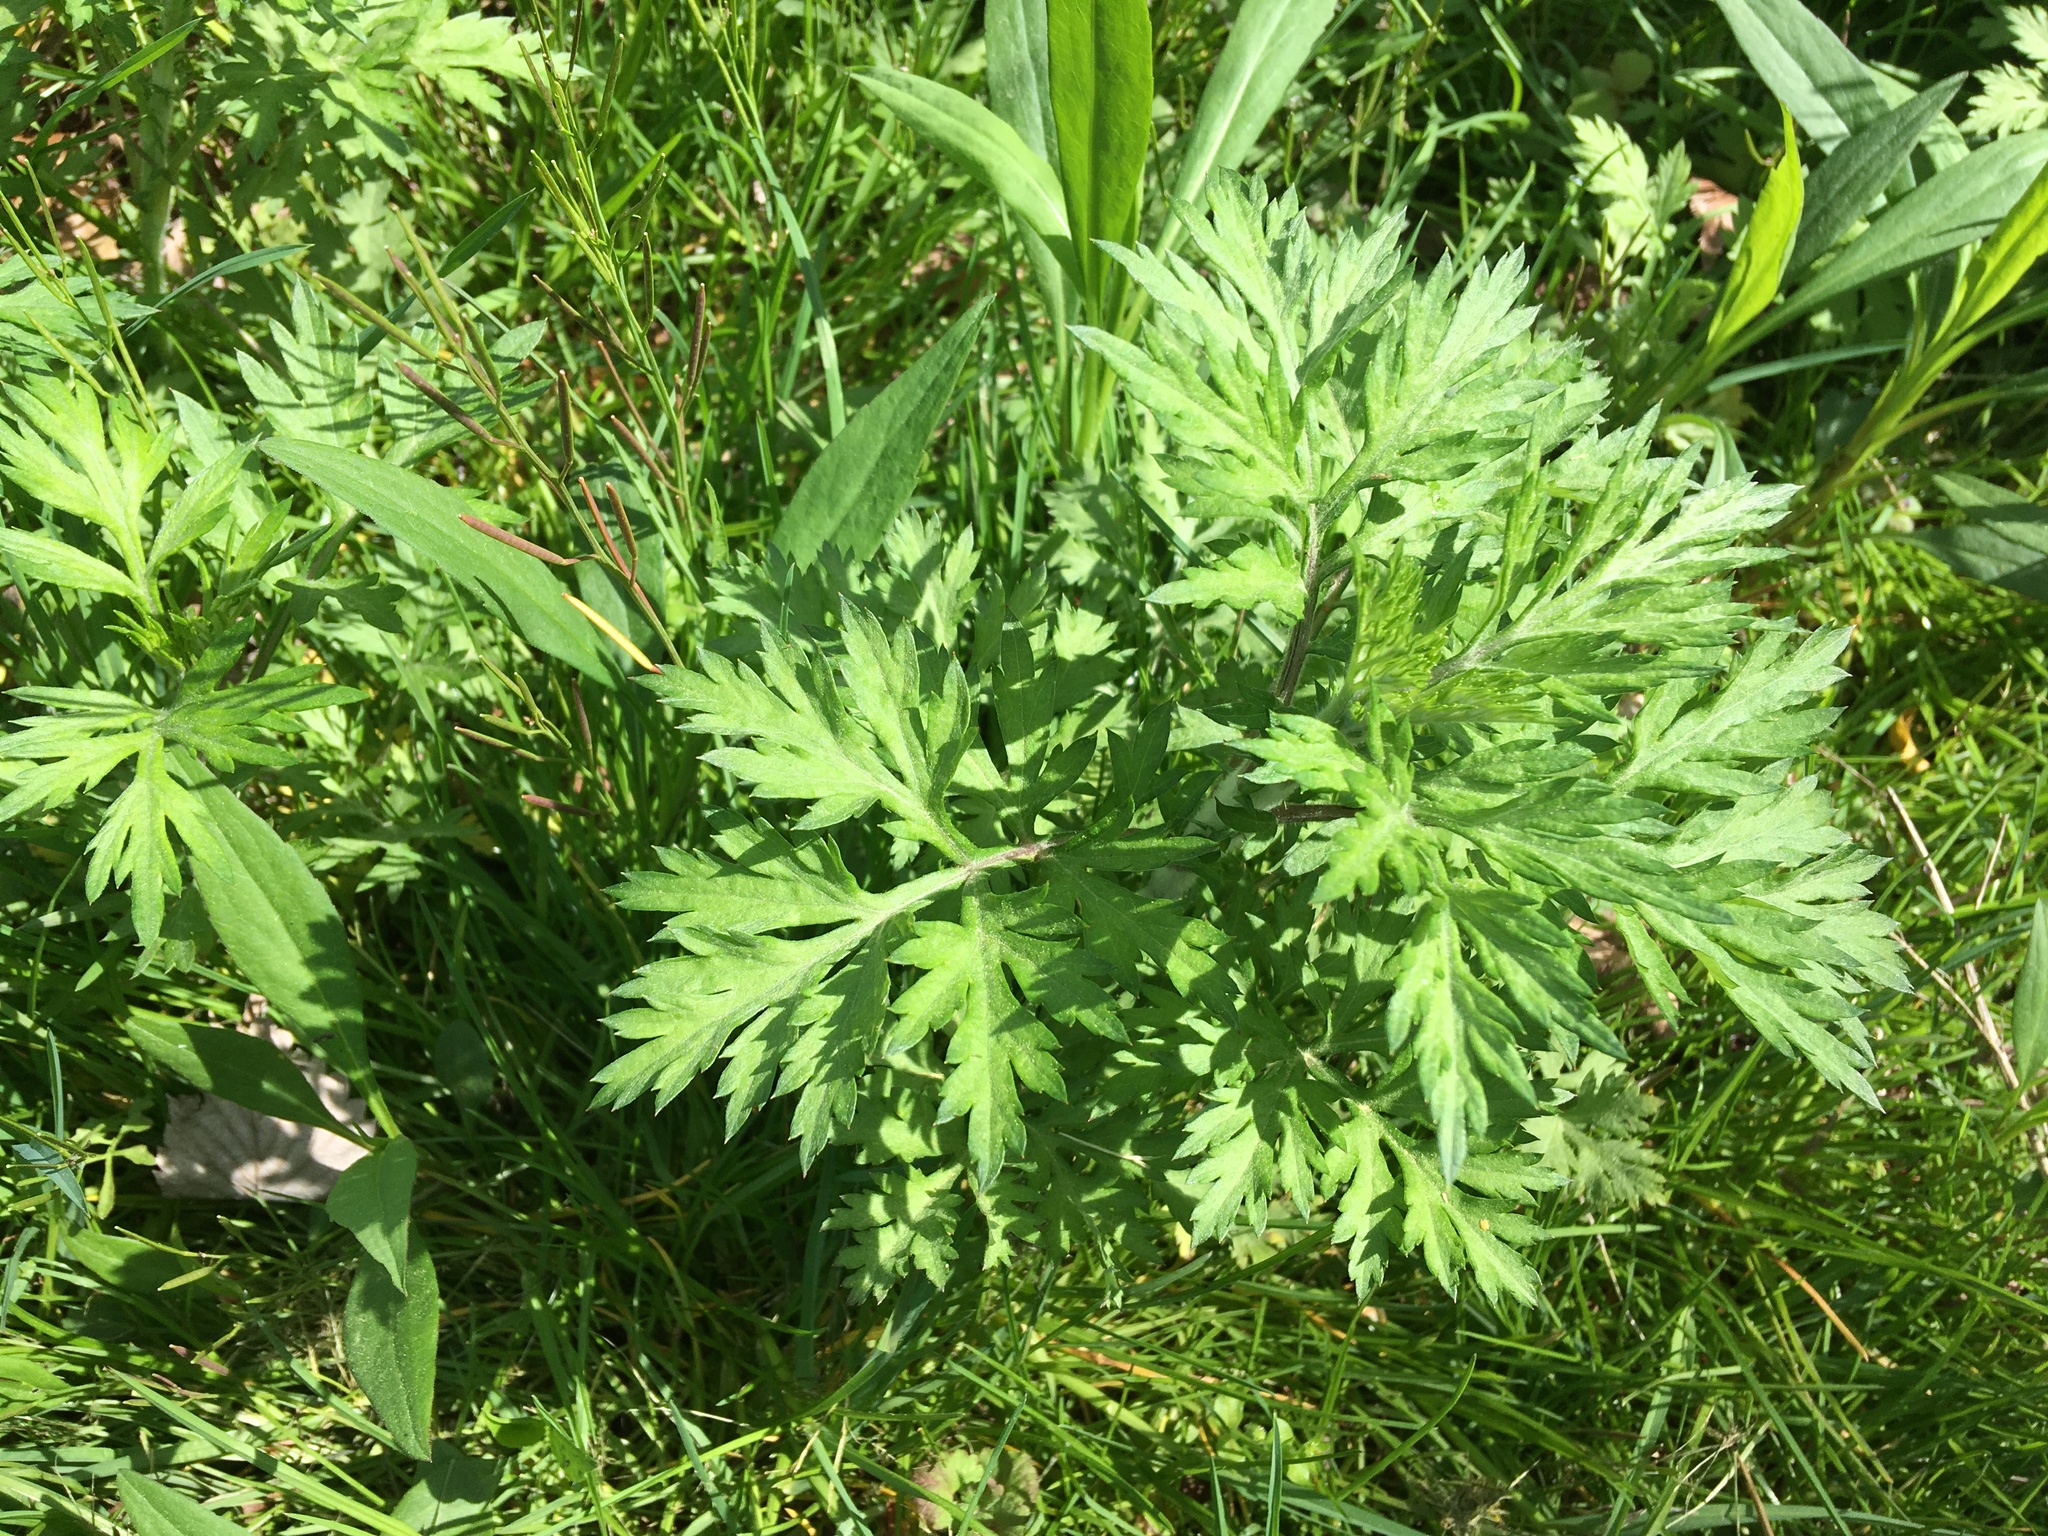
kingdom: Plantae
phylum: Tracheophyta
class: Magnoliopsida
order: Asterales
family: Asteraceae
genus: Artemisia
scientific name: Artemisia vulgaris
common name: Mugwort
